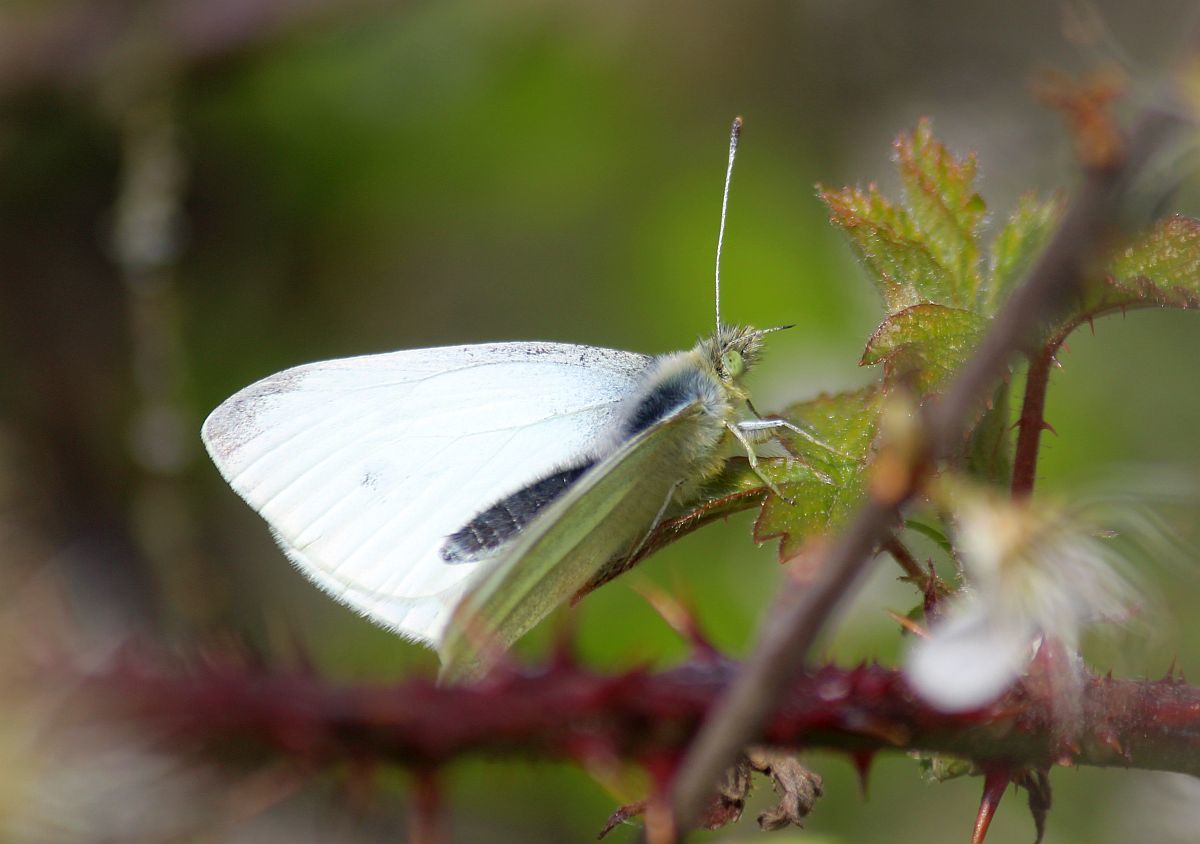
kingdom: Animalia
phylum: Arthropoda
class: Insecta
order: Lepidoptera
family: Pieridae
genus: Pieris
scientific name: Pieris rapae
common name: Small white
